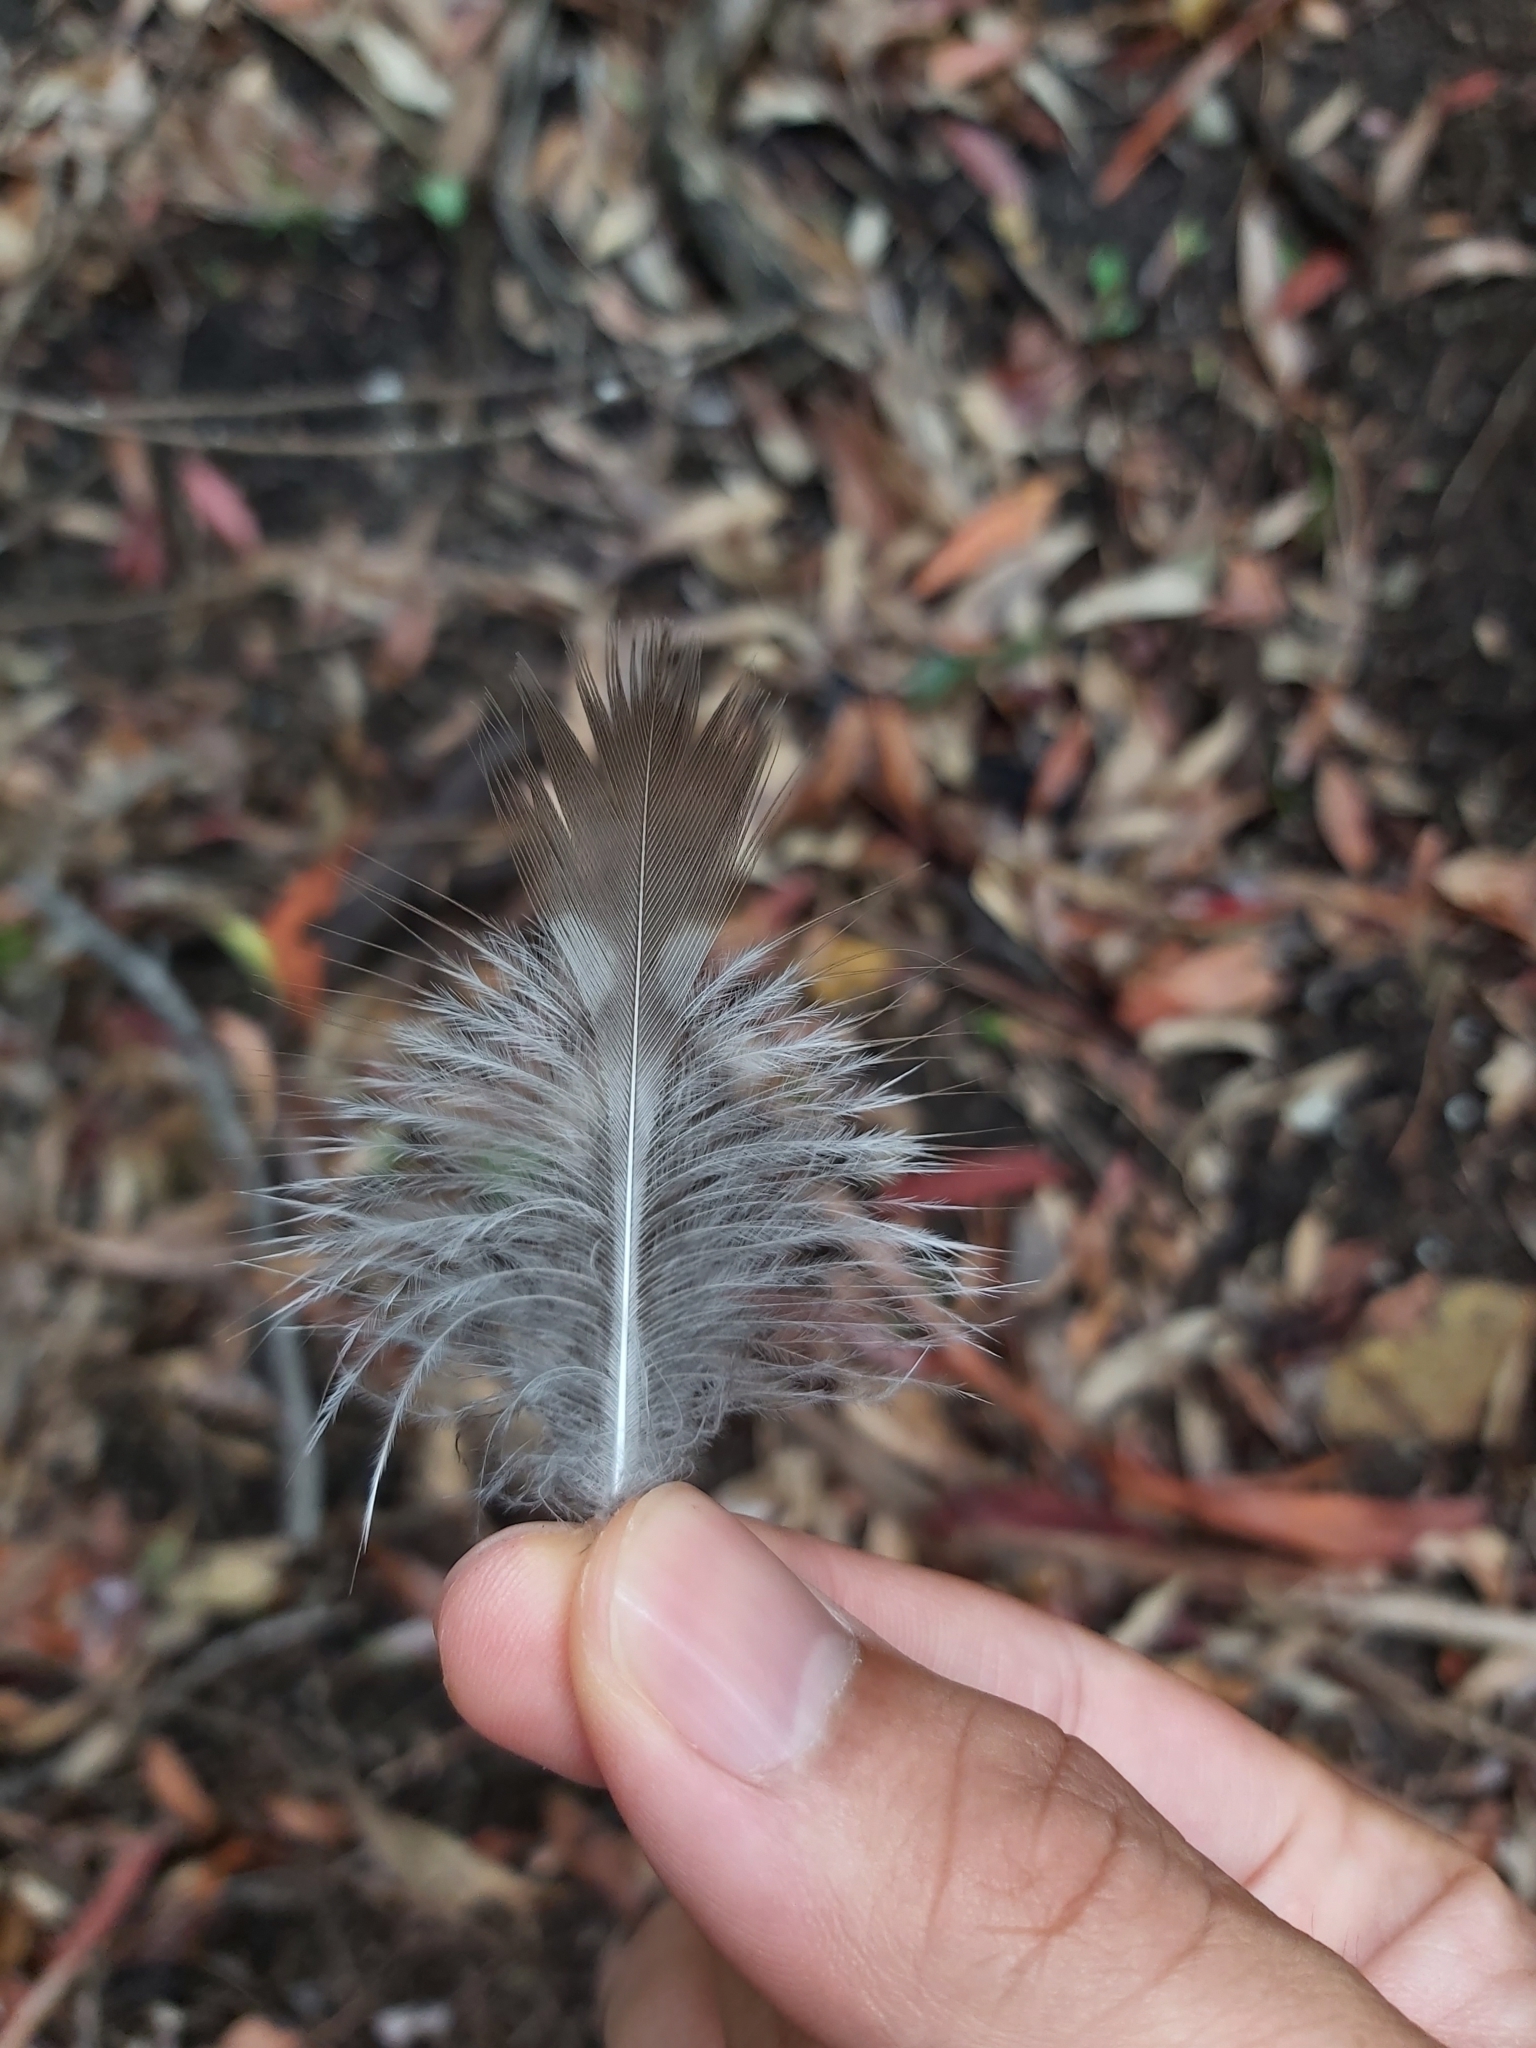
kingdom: Animalia
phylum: Chordata
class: Aves
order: Coraciiformes
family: Alcedinidae
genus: Dacelo
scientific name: Dacelo novaeguineae
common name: Laughing kookaburra
